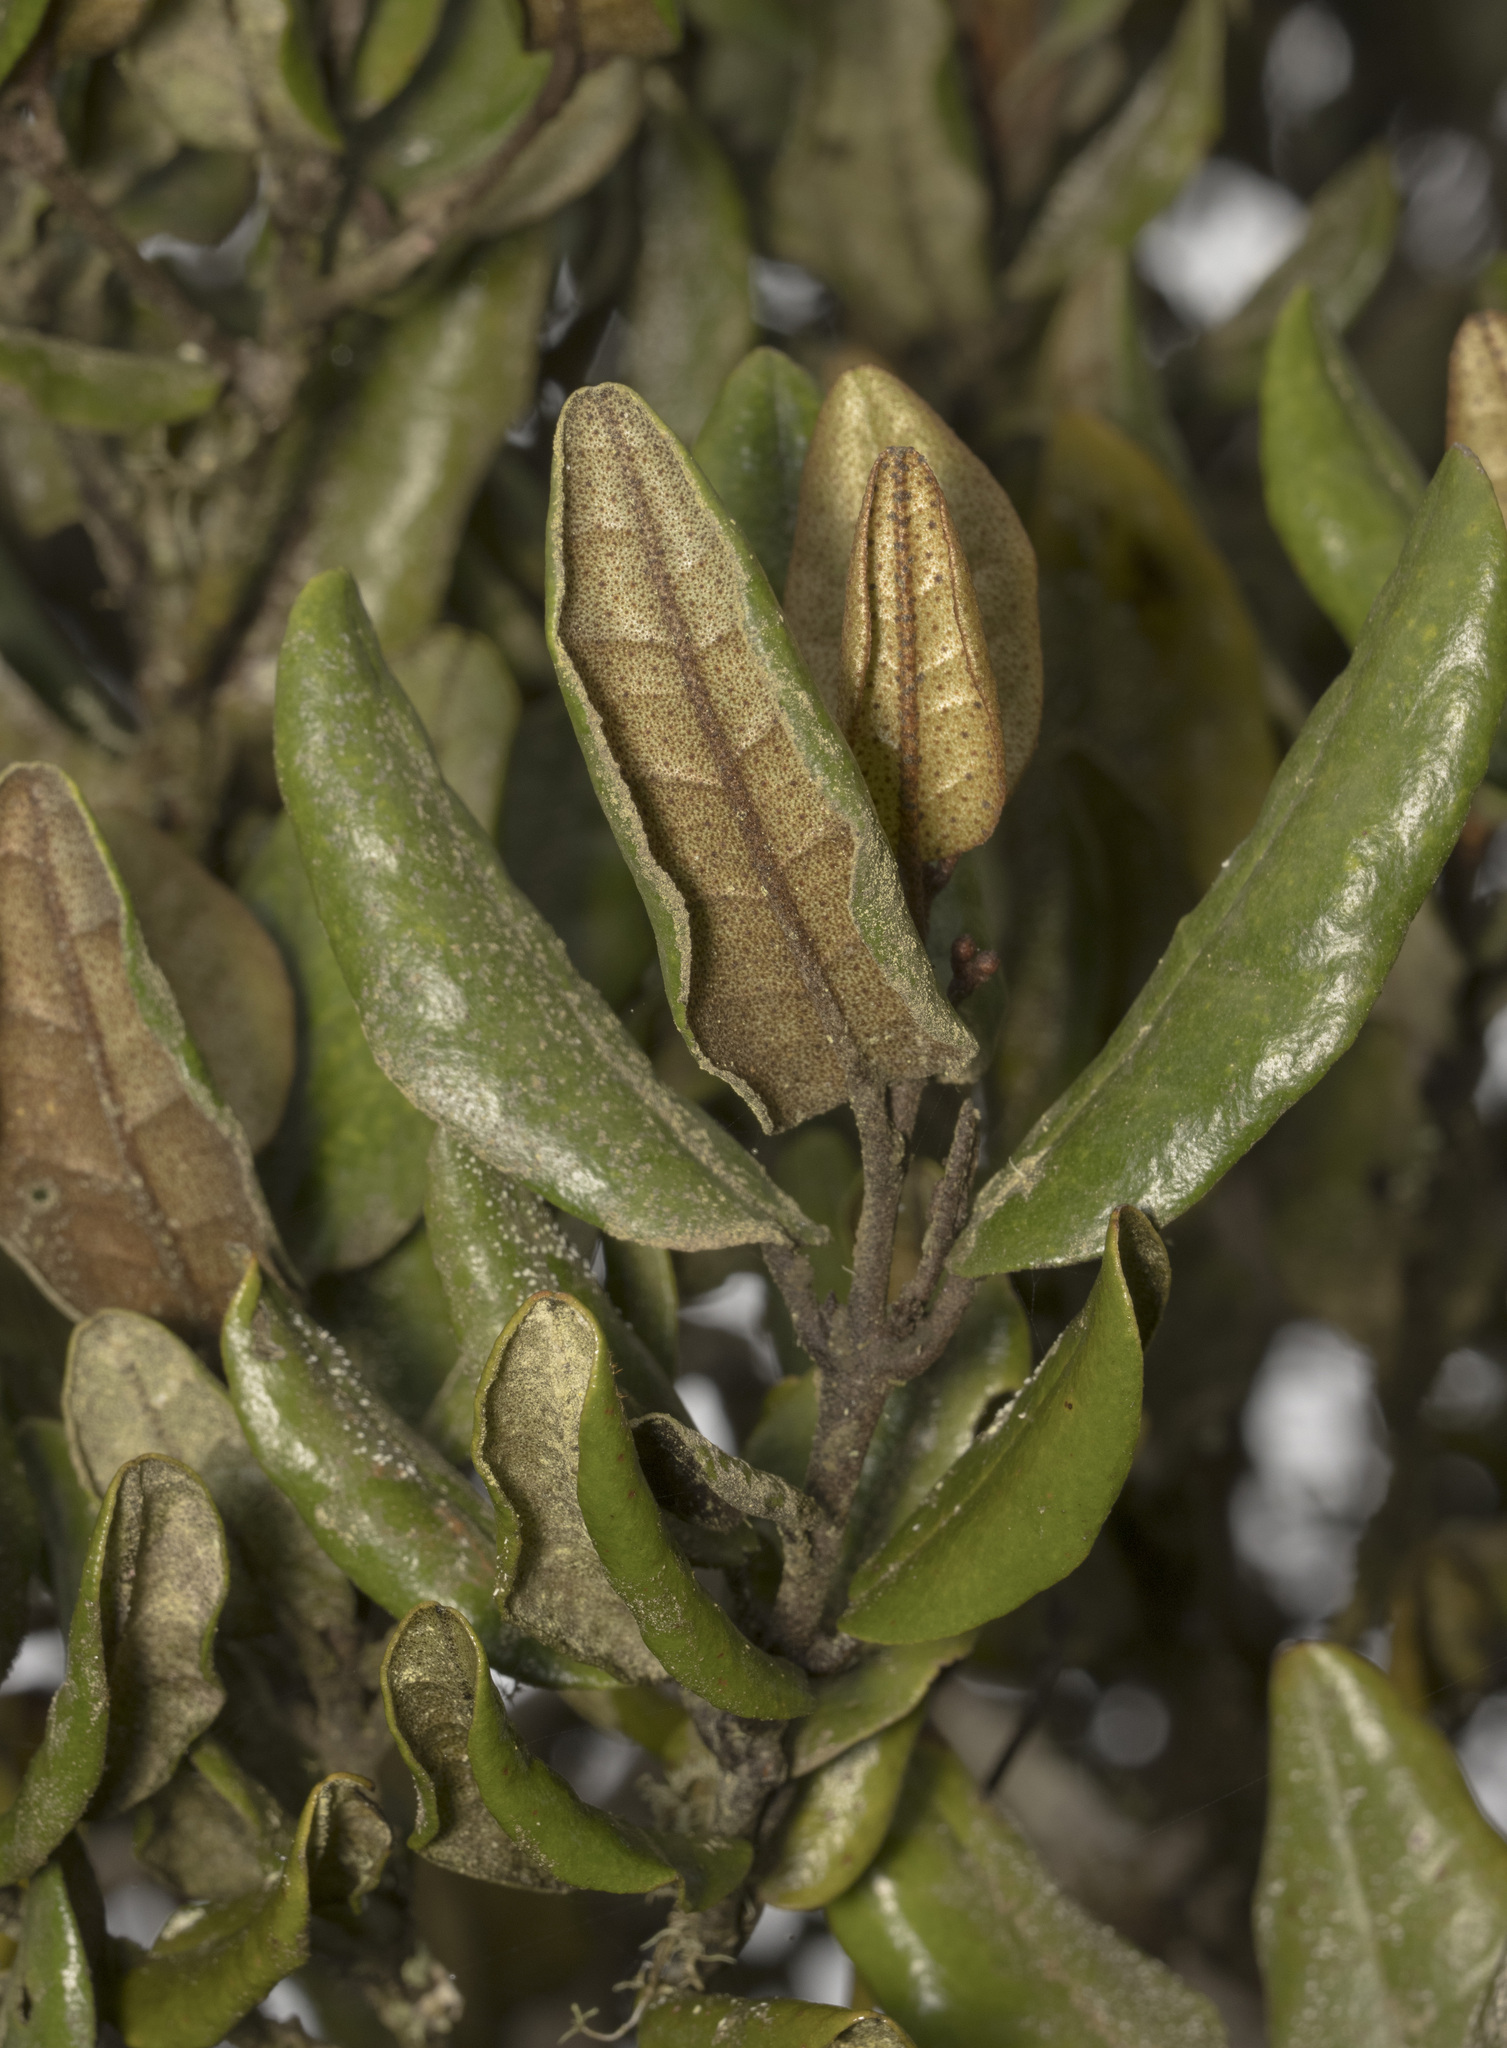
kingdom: Plantae
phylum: Tracheophyta
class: Magnoliopsida
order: Berberidopsidales
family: Aextoxicaceae
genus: Aextoxicon
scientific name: Aextoxicon punctatum
